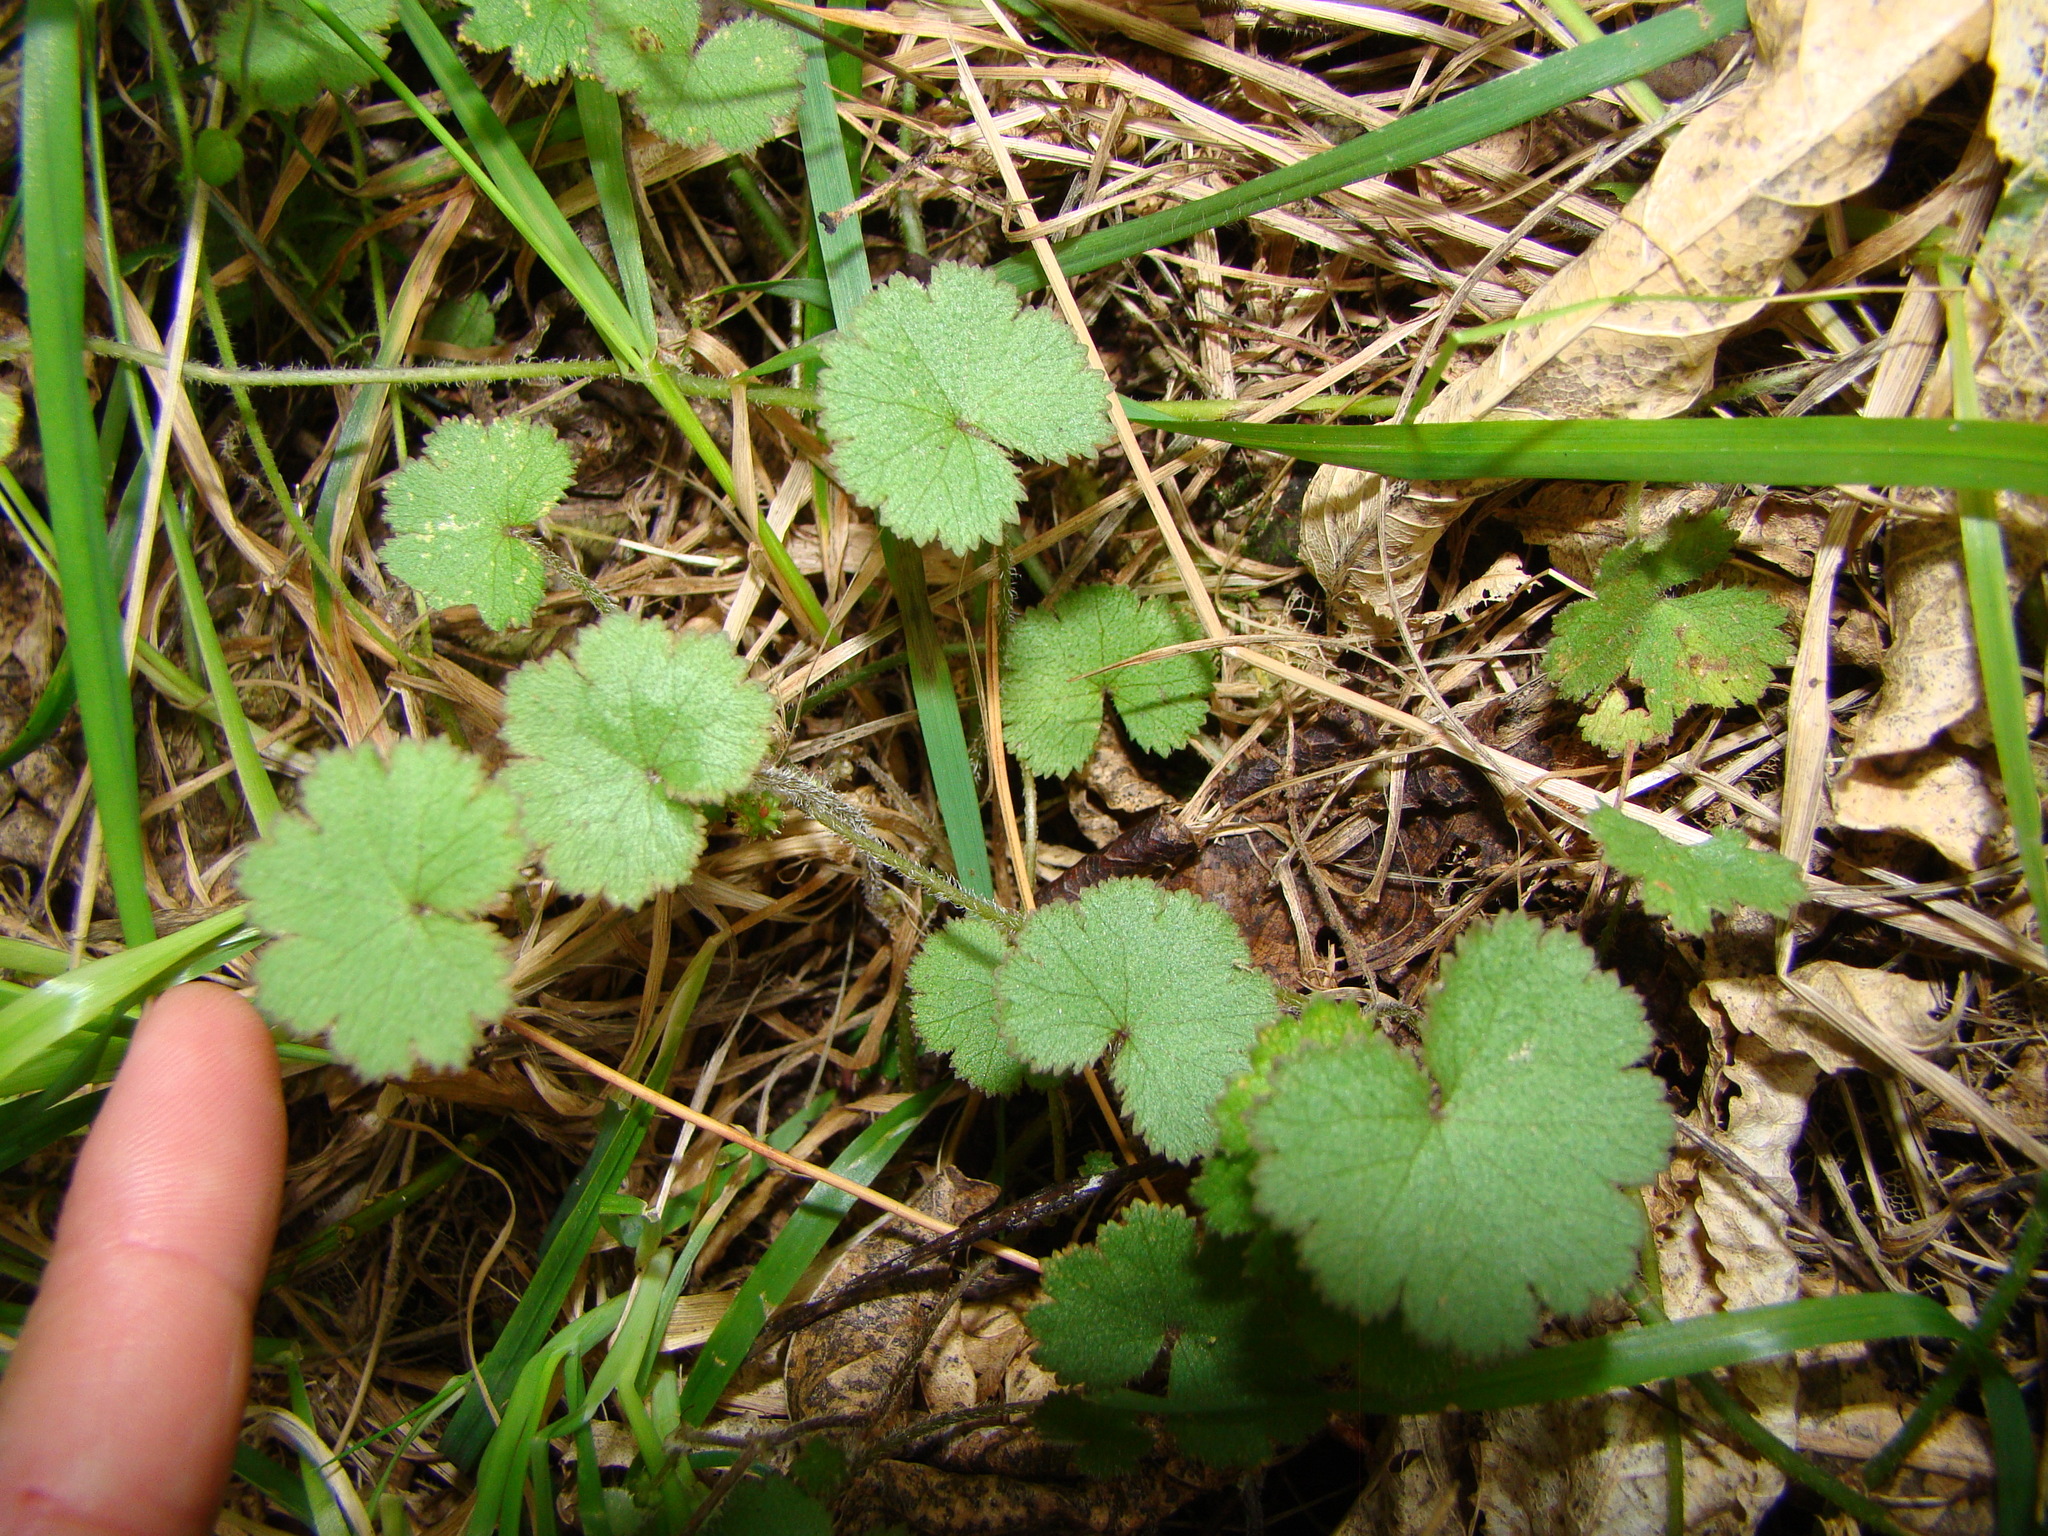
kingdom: Plantae
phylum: Tracheophyta
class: Magnoliopsida
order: Apiales
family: Araliaceae
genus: Hydrocotyle
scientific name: Hydrocotyle moschata
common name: Hairy pennywort
